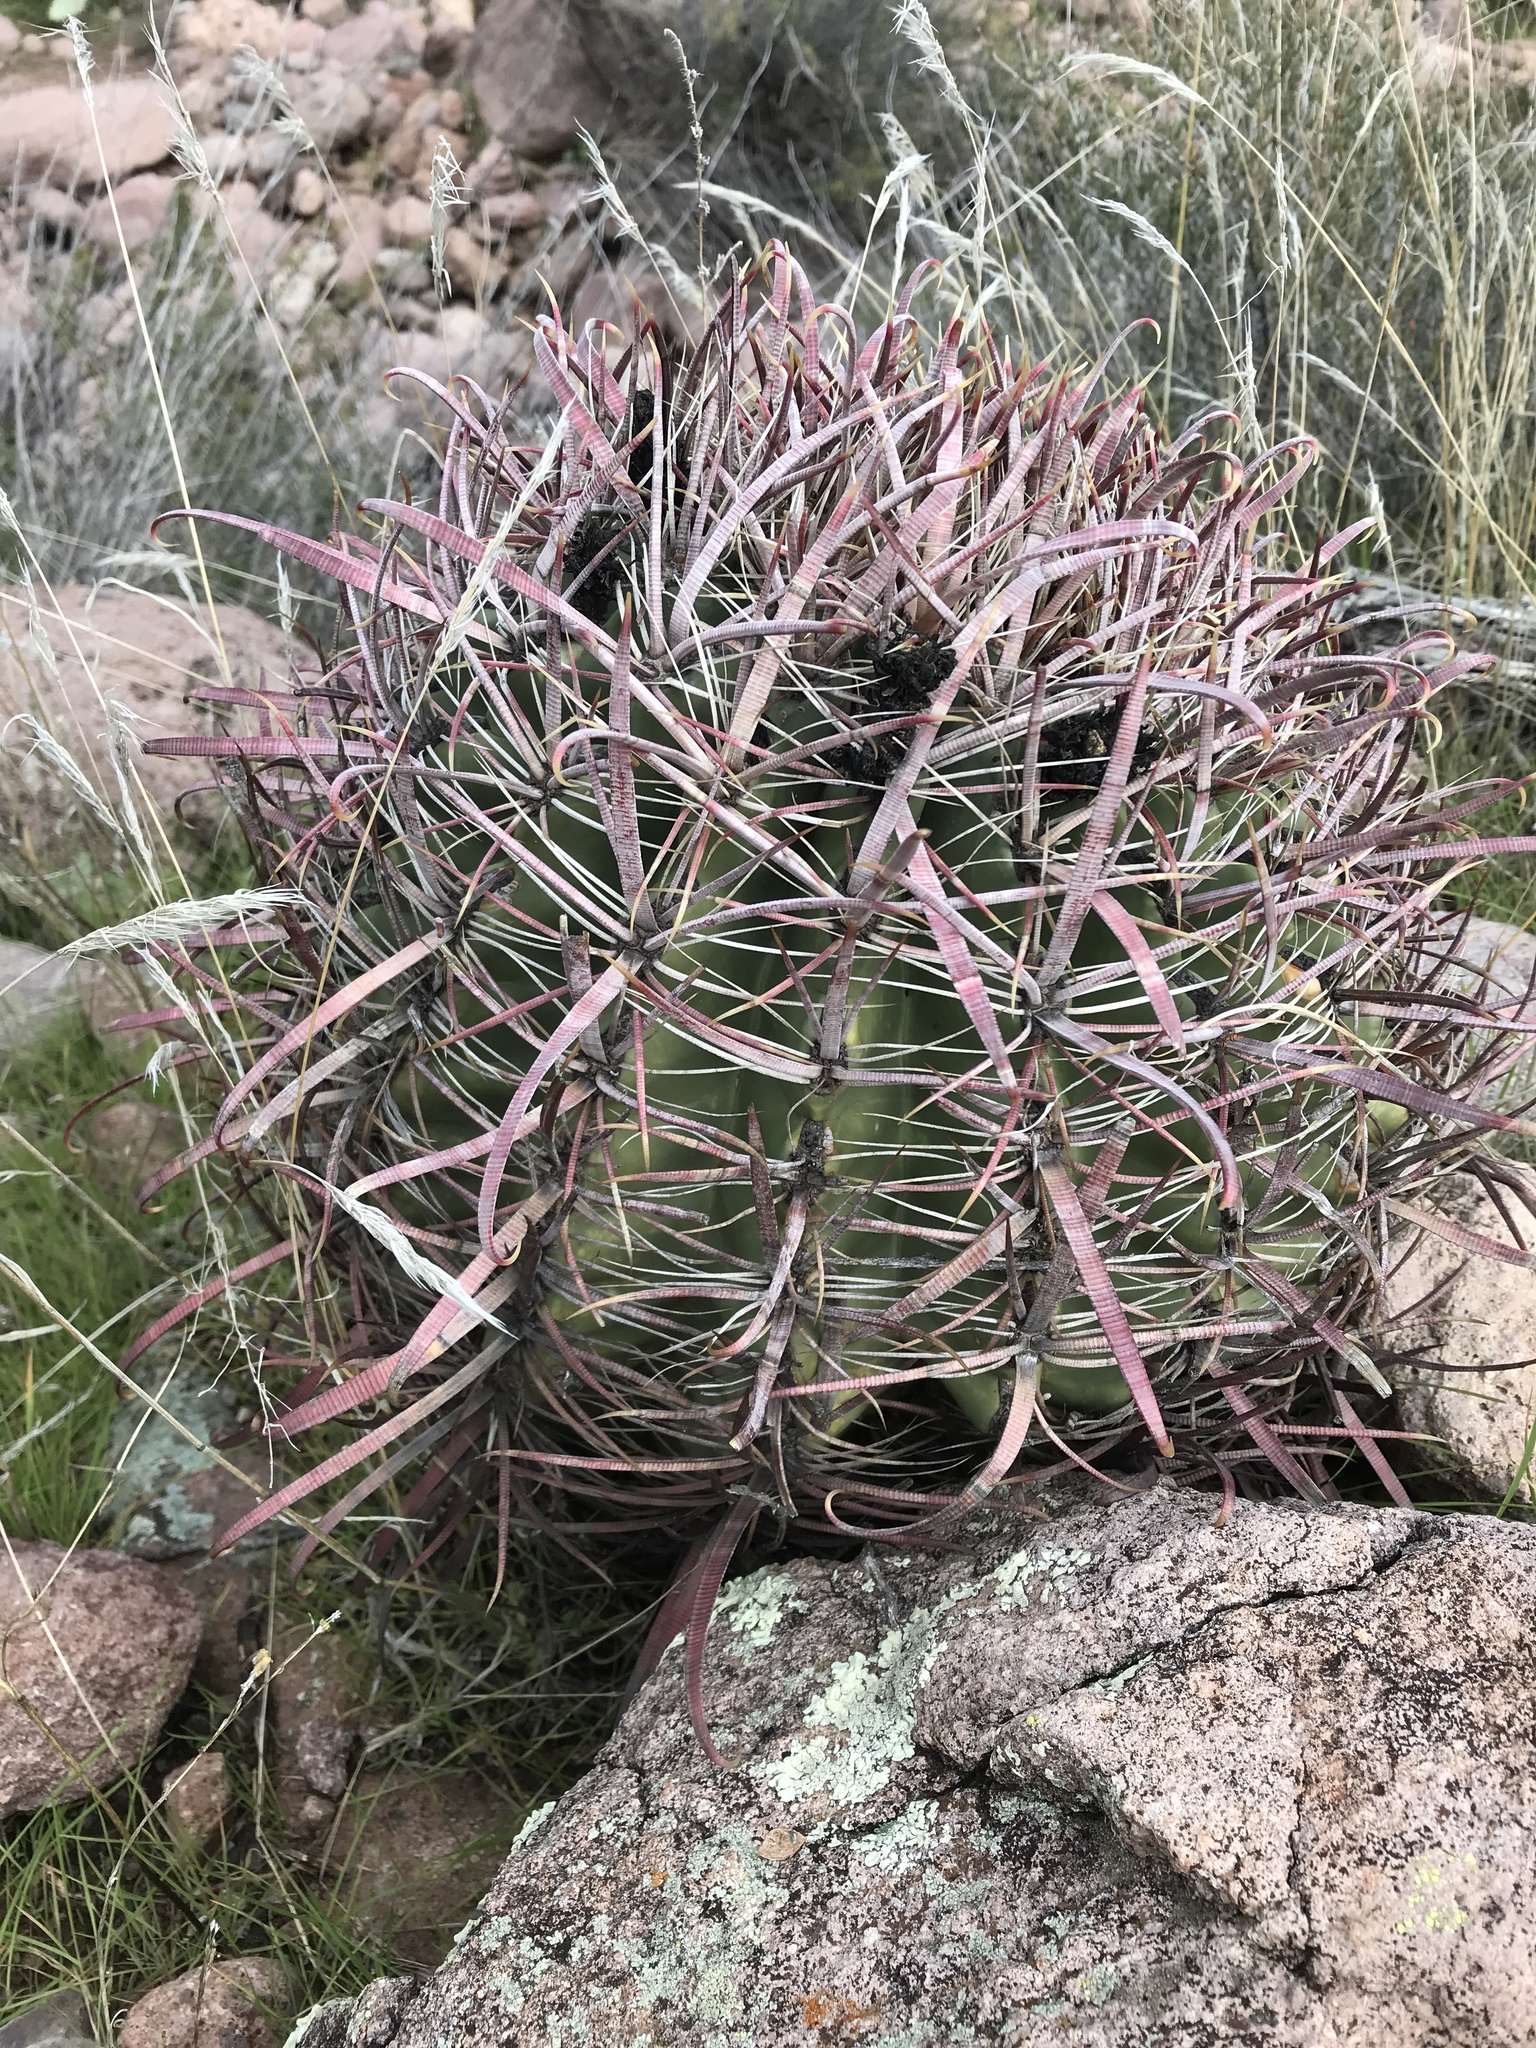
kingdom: Plantae
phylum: Tracheophyta
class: Magnoliopsida
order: Caryophyllales
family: Cactaceae
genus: Ferocactus
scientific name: Ferocactus cylindraceus
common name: California barrel cactus
